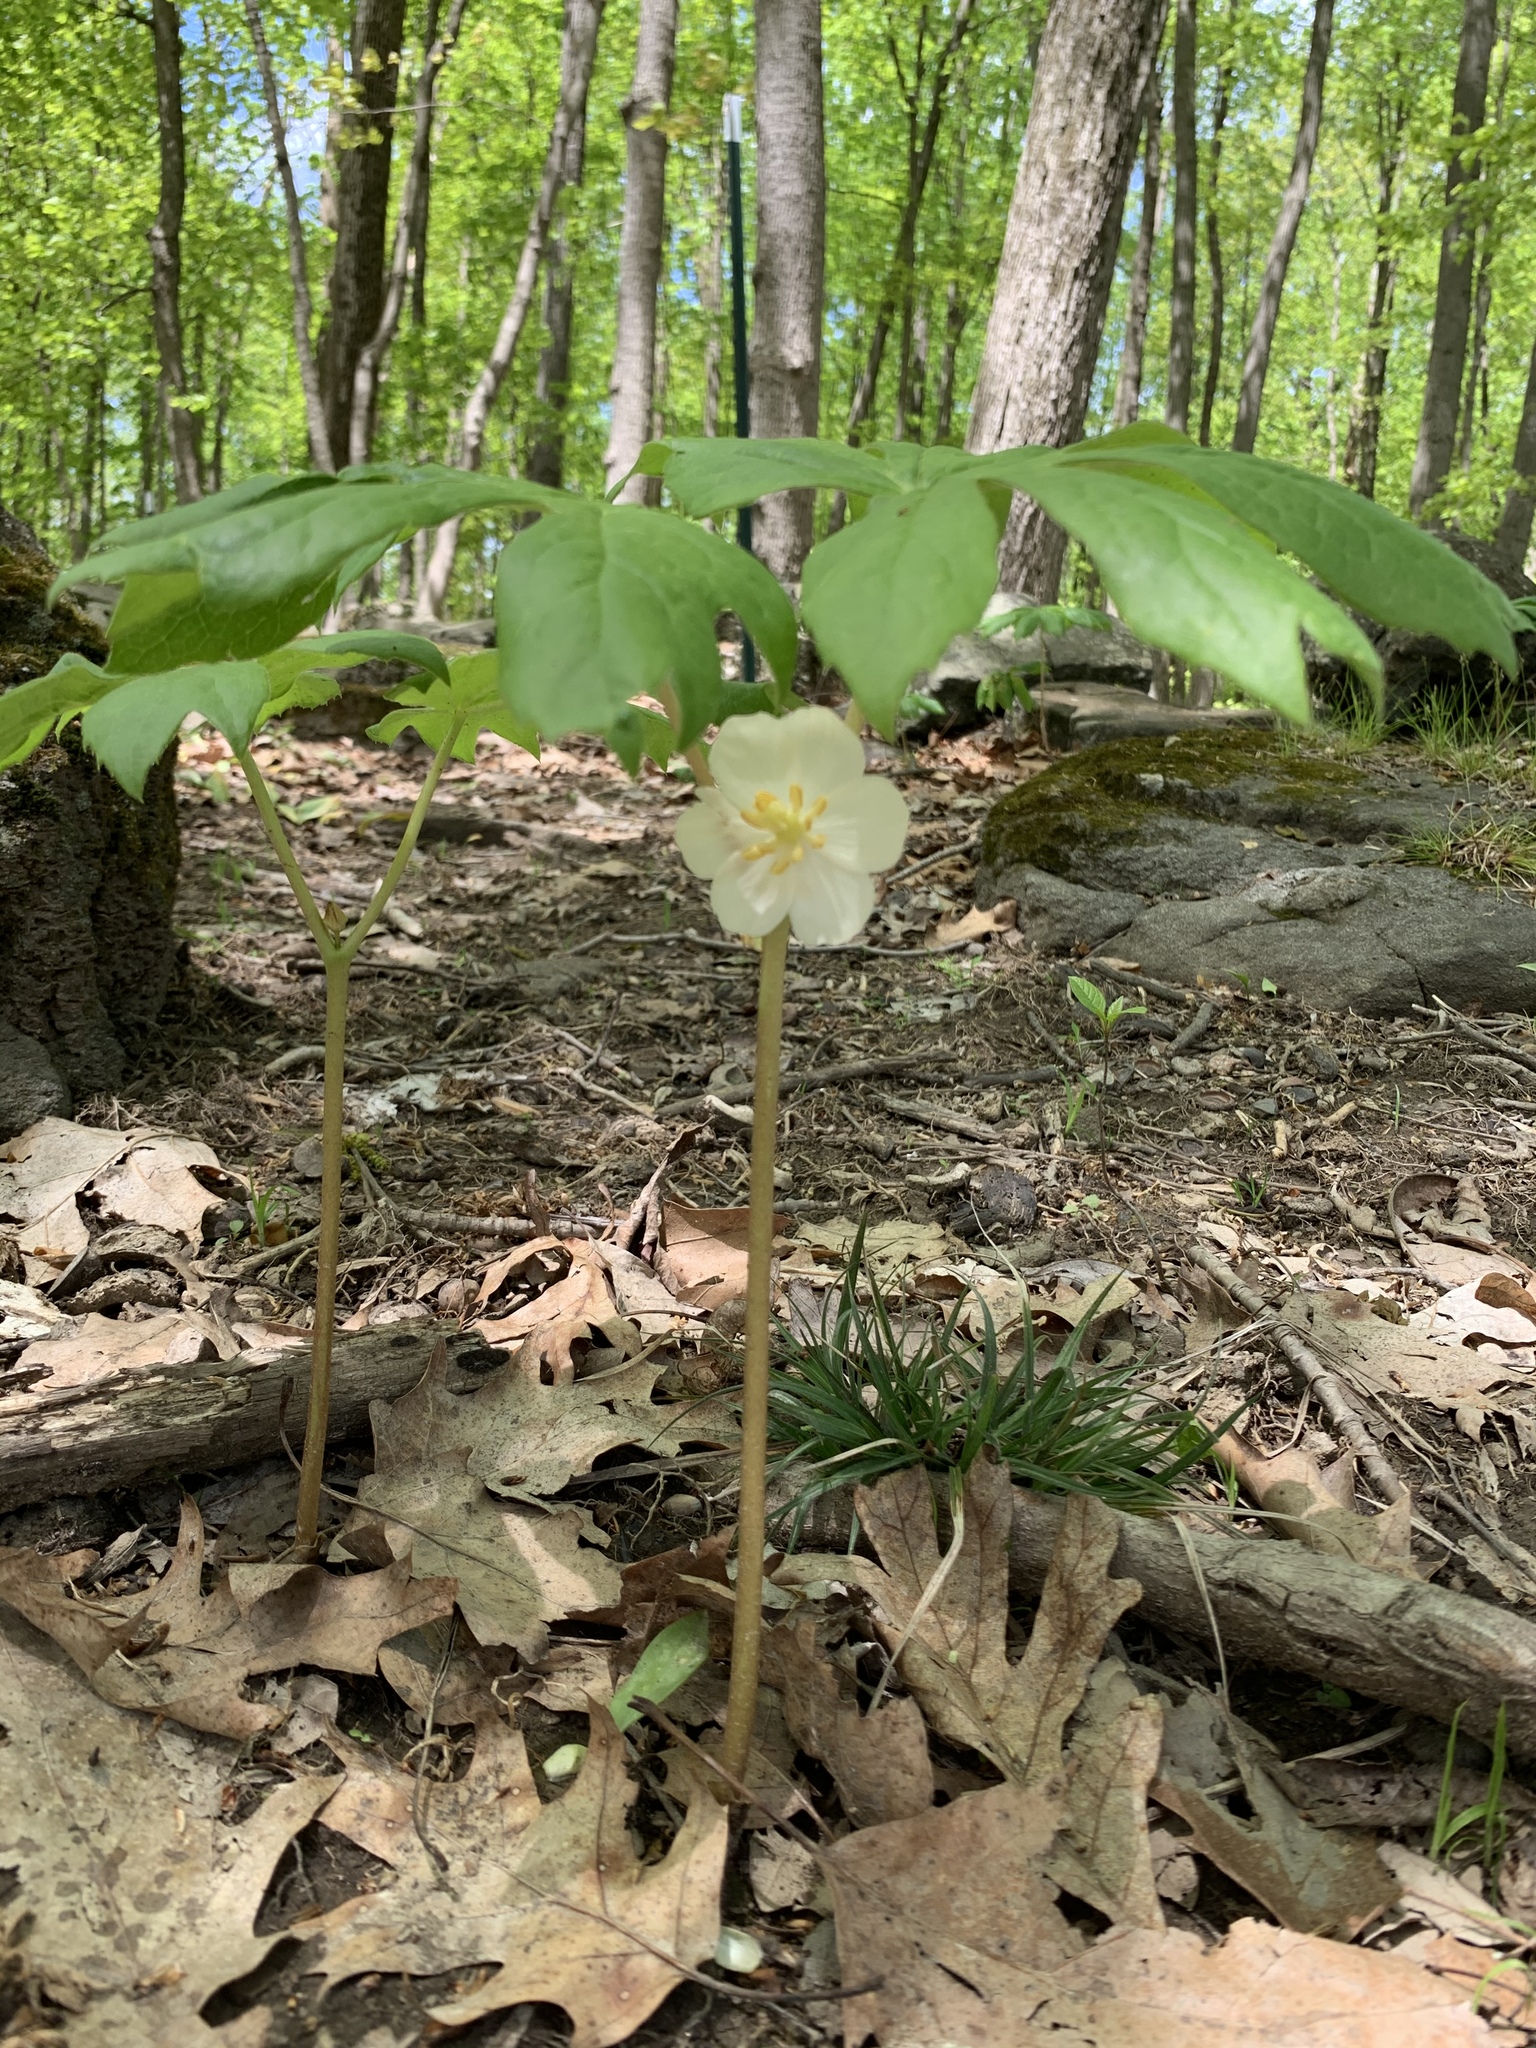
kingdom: Plantae
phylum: Tracheophyta
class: Magnoliopsida
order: Ranunculales
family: Berberidaceae
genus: Podophyllum
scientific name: Podophyllum peltatum
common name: Wild mandrake
